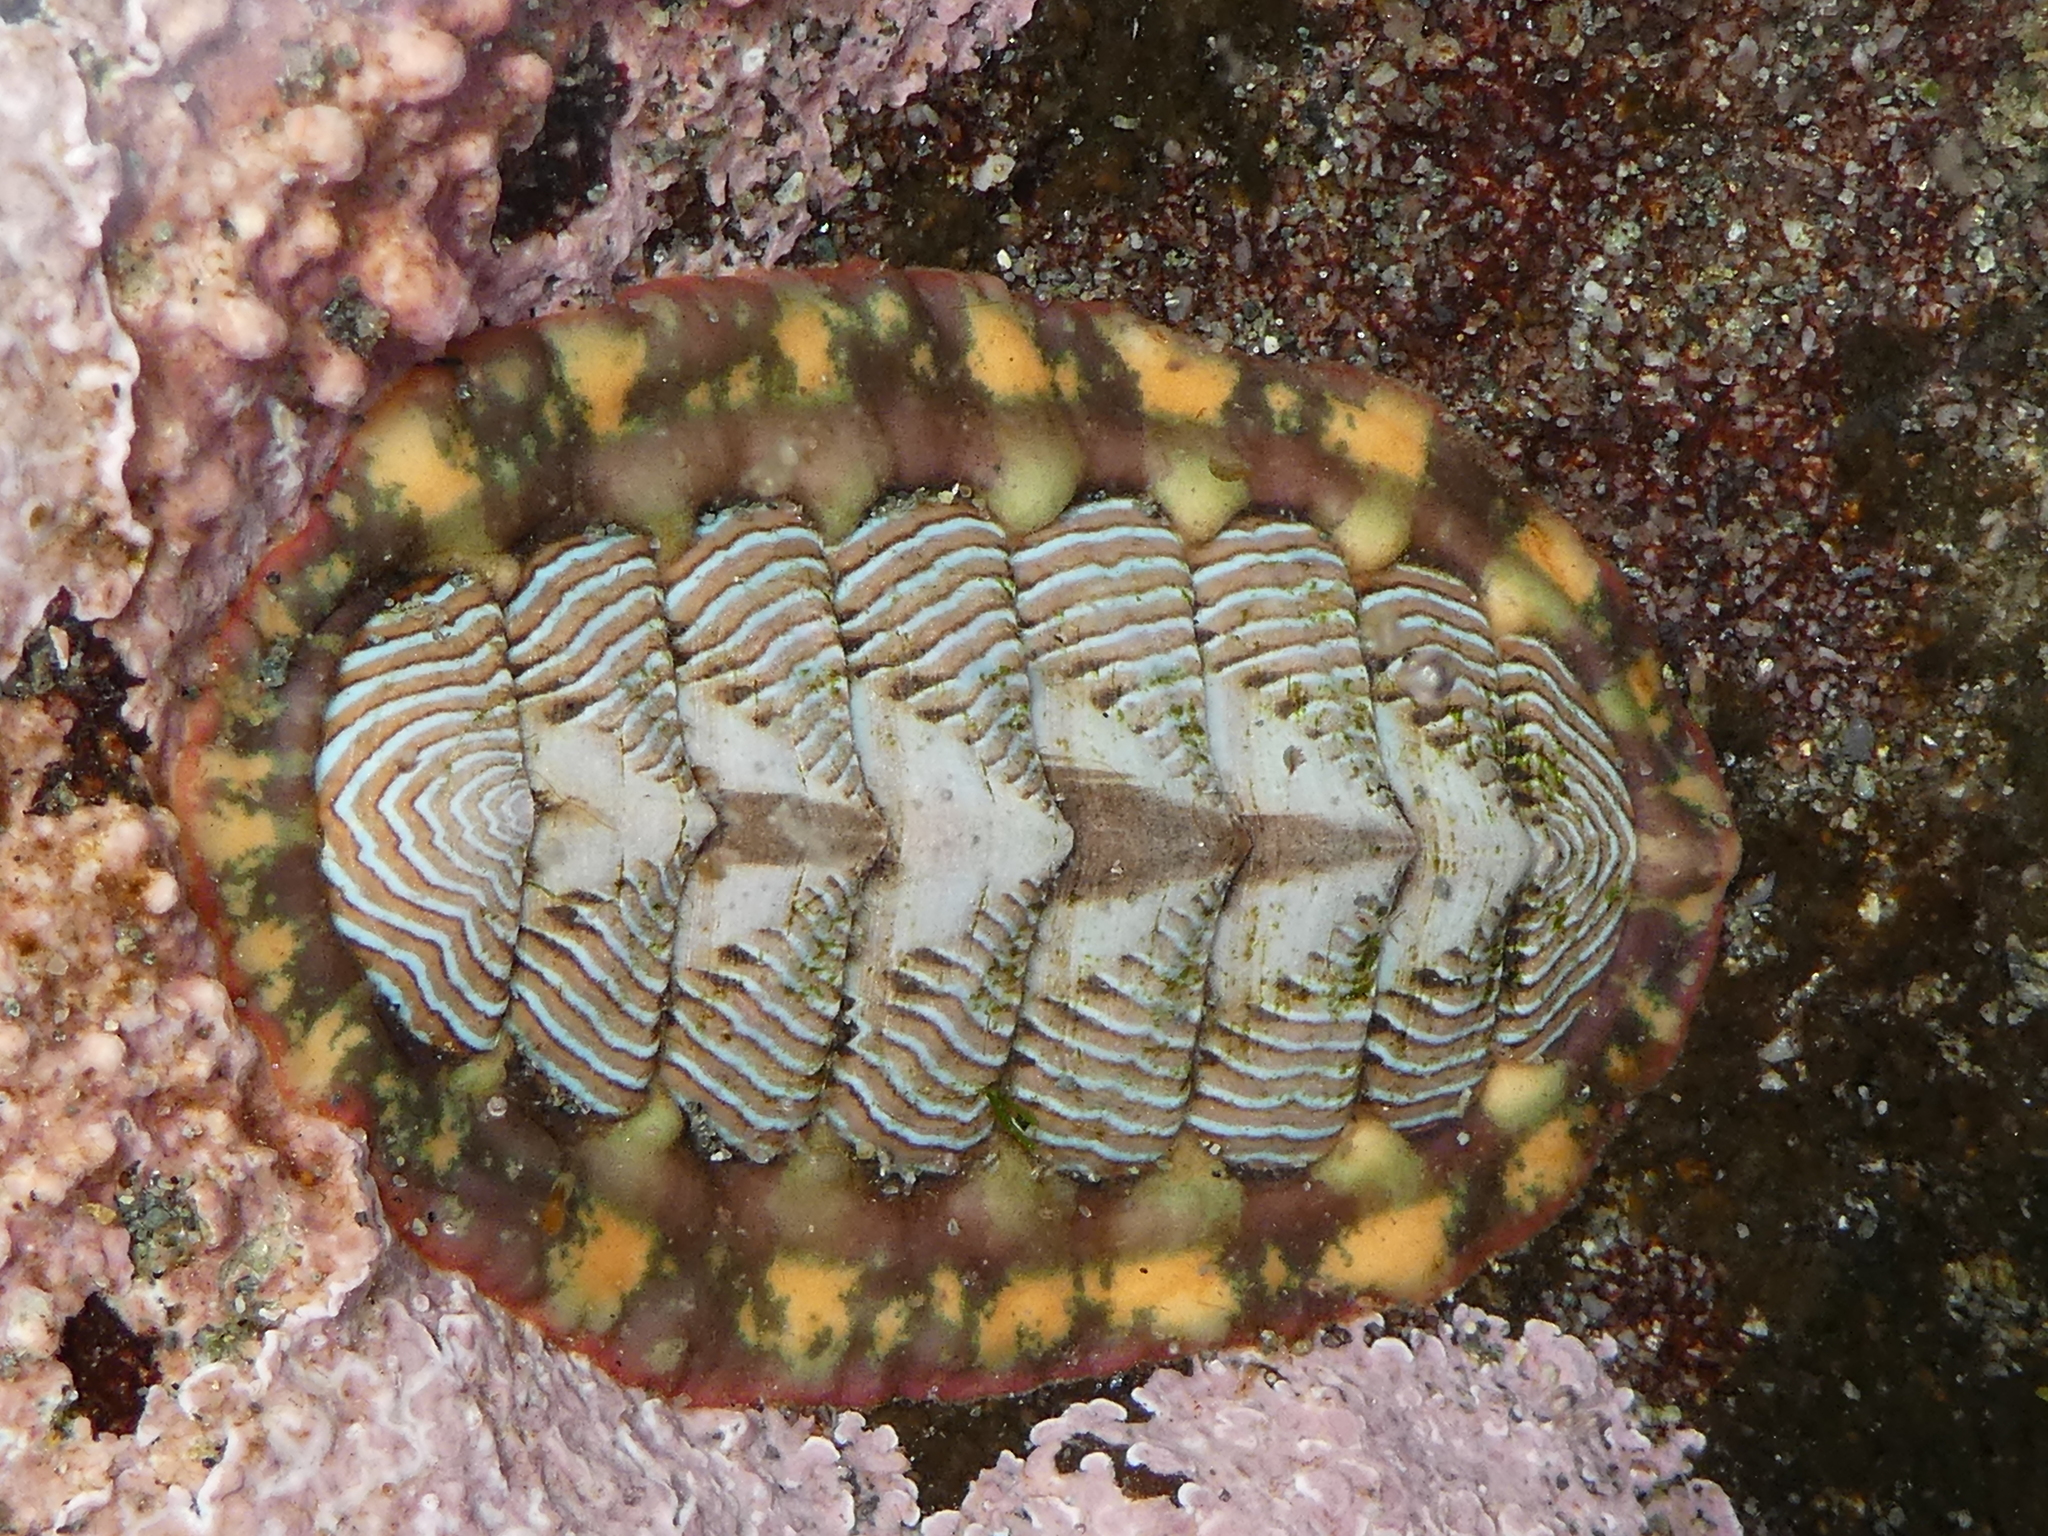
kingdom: Animalia
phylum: Mollusca
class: Polyplacophora
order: Chitonida
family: Tonicellidae
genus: Tonicella
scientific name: Tonicella lineata
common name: Lined chiton
